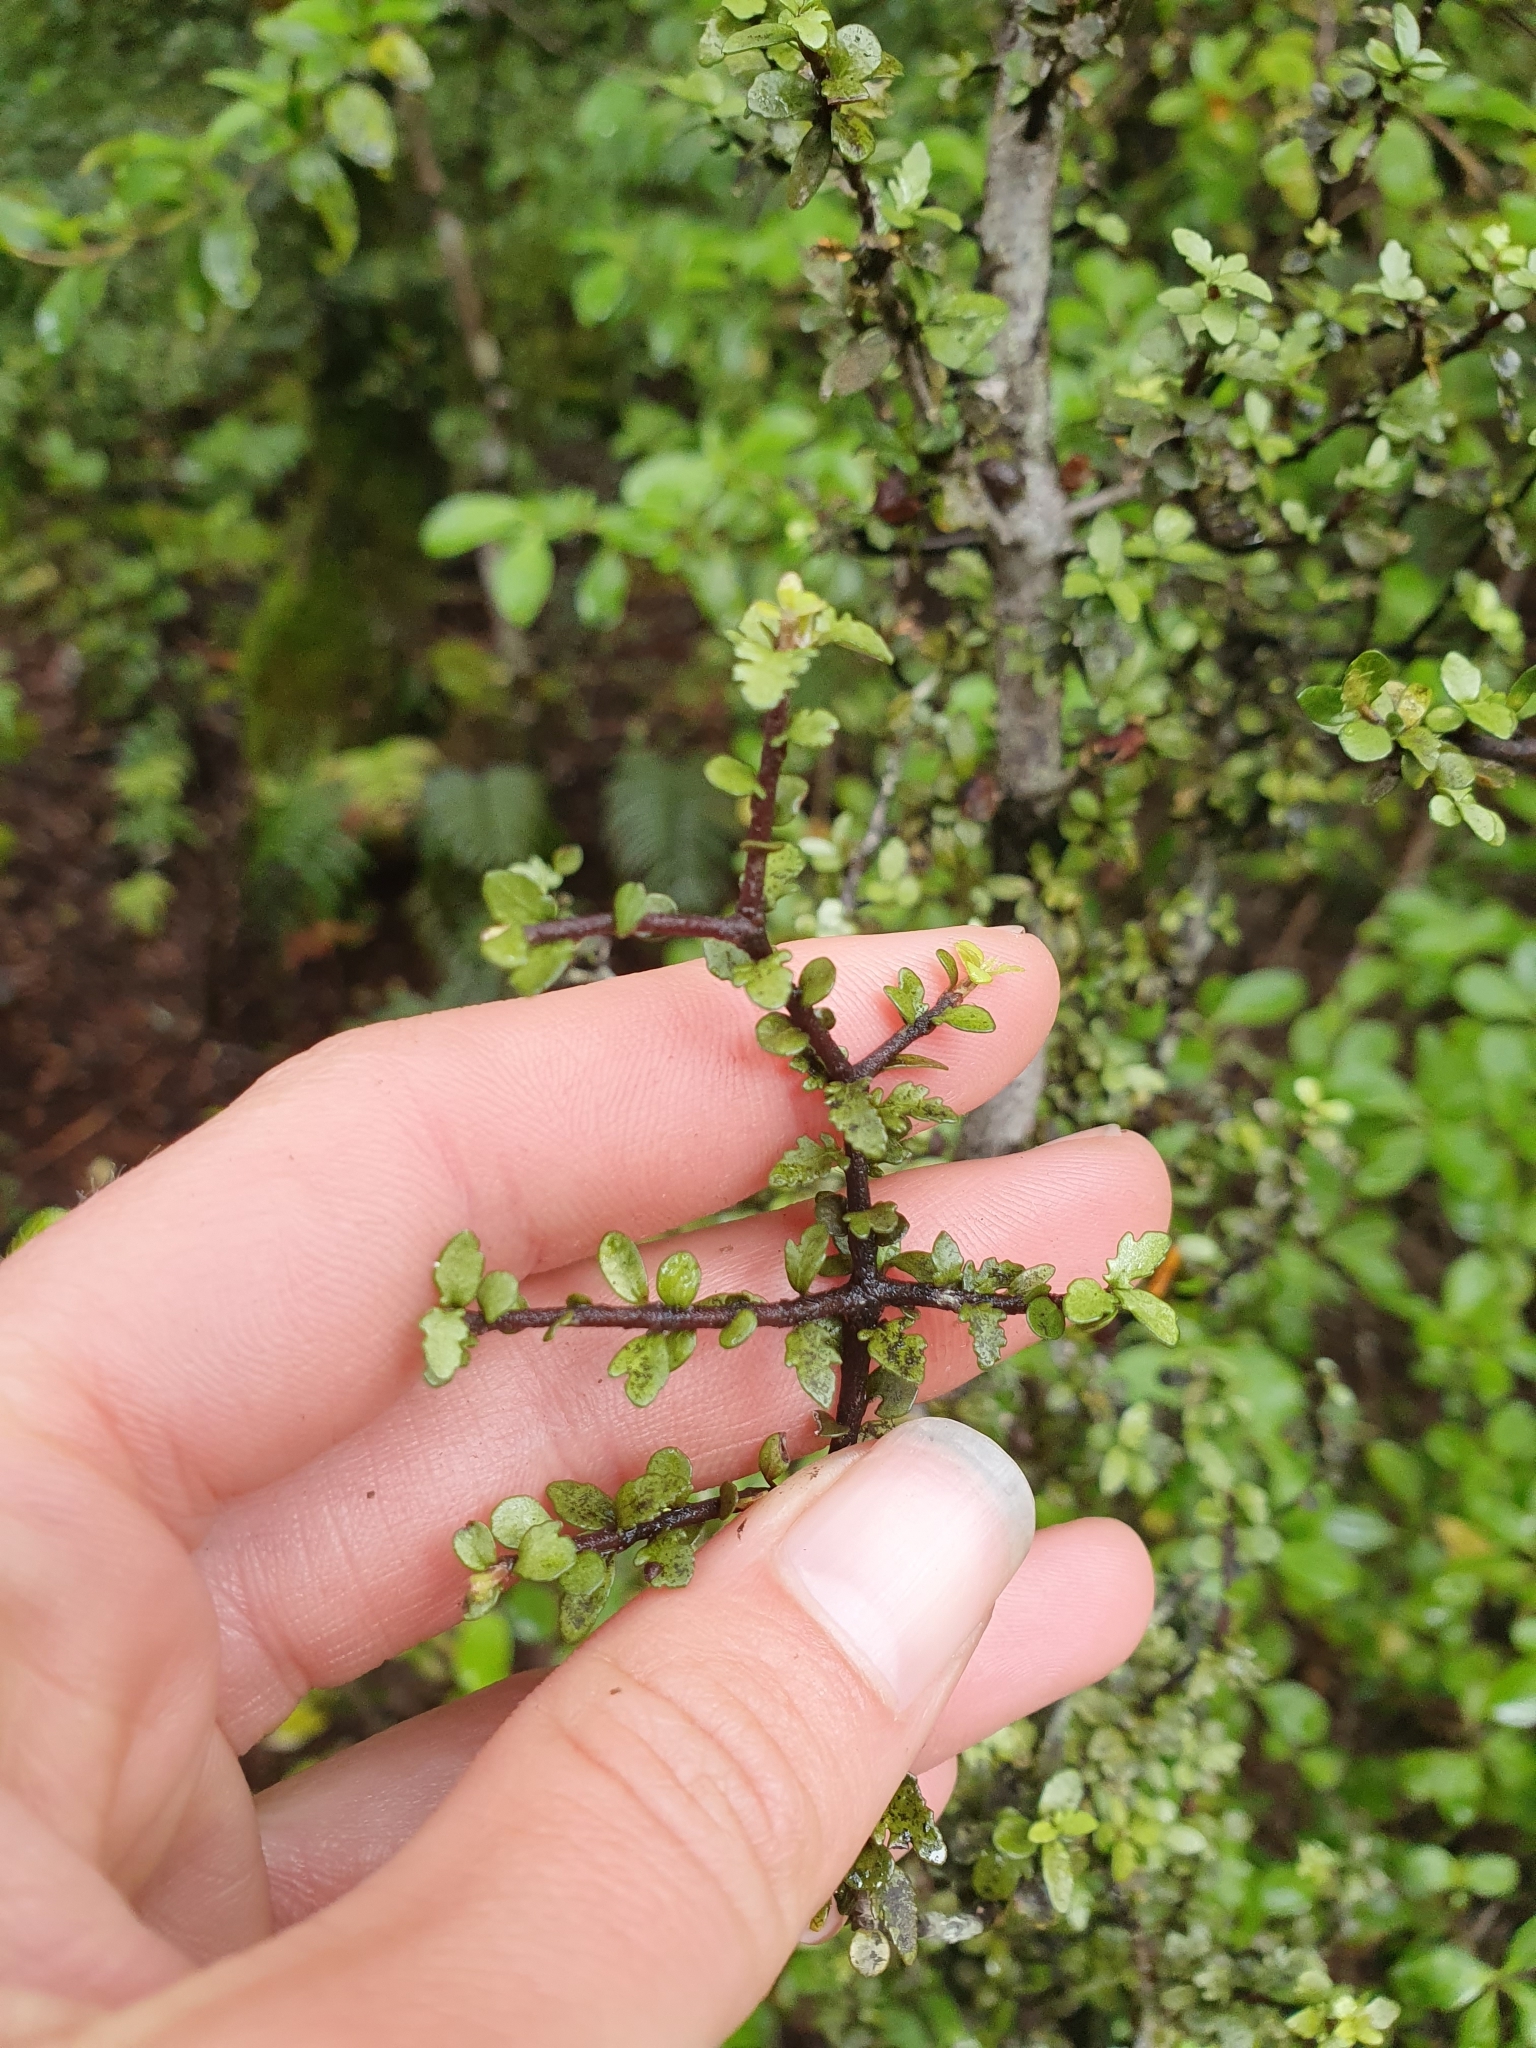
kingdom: Plantae
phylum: Tracheophyta
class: Magnoliopsida
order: Apiales
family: Pittosporaceae
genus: Pittosporum
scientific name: Pittosporum divaricatum
